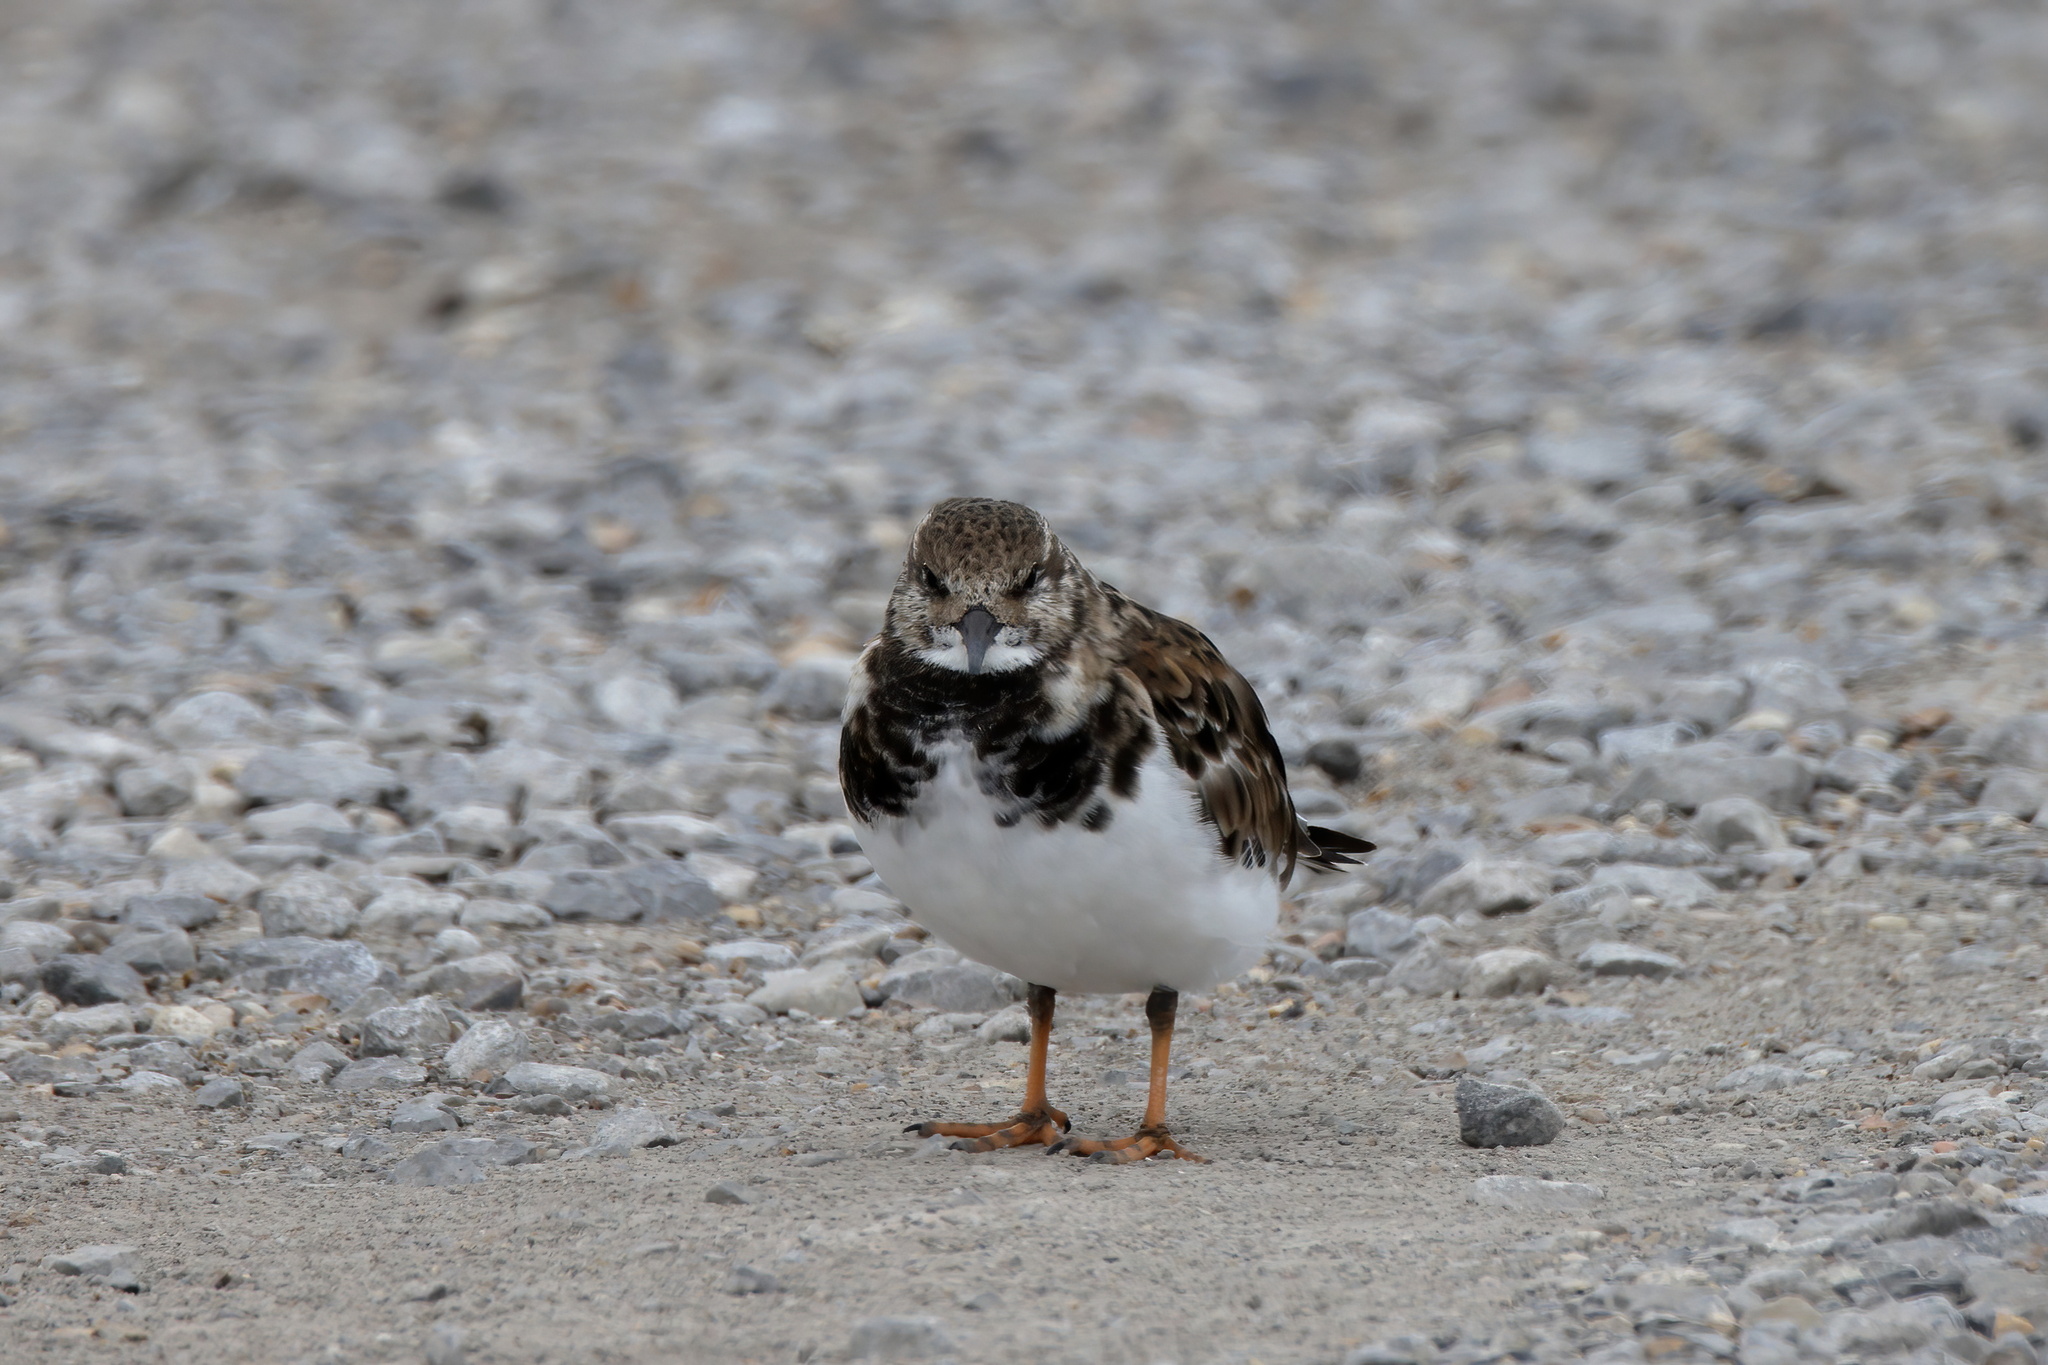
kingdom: Animalia
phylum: Chordata
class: Aves
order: Charadriiformes
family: Scolopacidae
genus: Arenaria
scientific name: Arenaria interpres
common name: Ruddy turnstone
